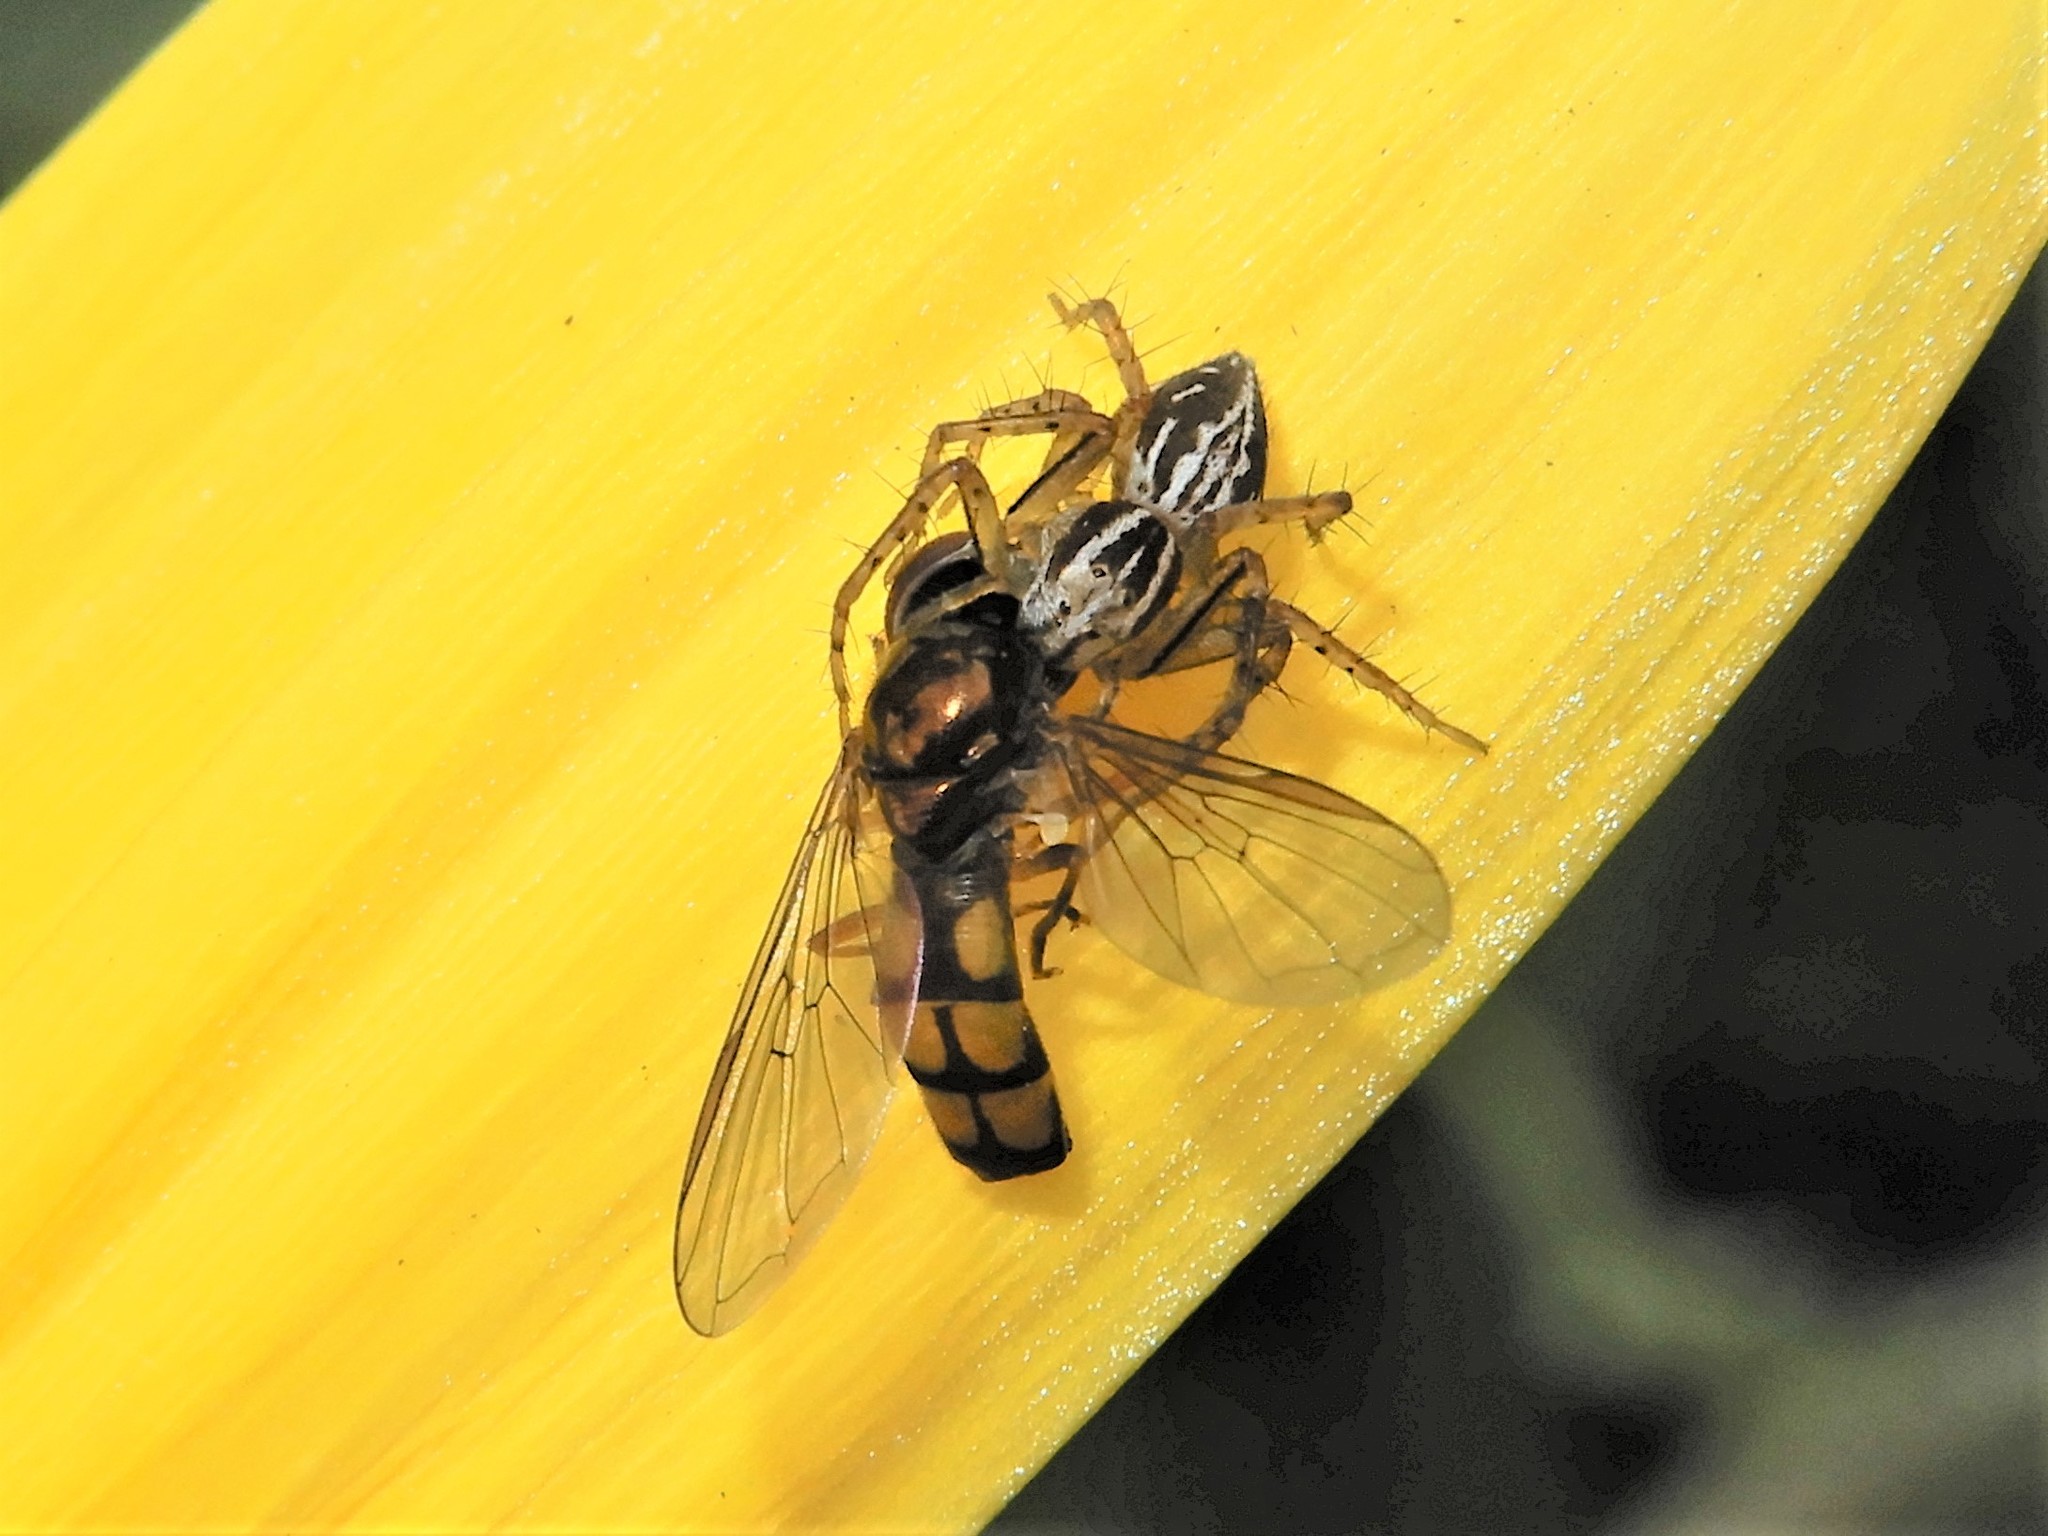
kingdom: Animalia
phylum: Arthropoda
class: Arachnida
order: Araneae
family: Oxyopidae
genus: Oxyopes
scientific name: Oxyopes gracilipes
